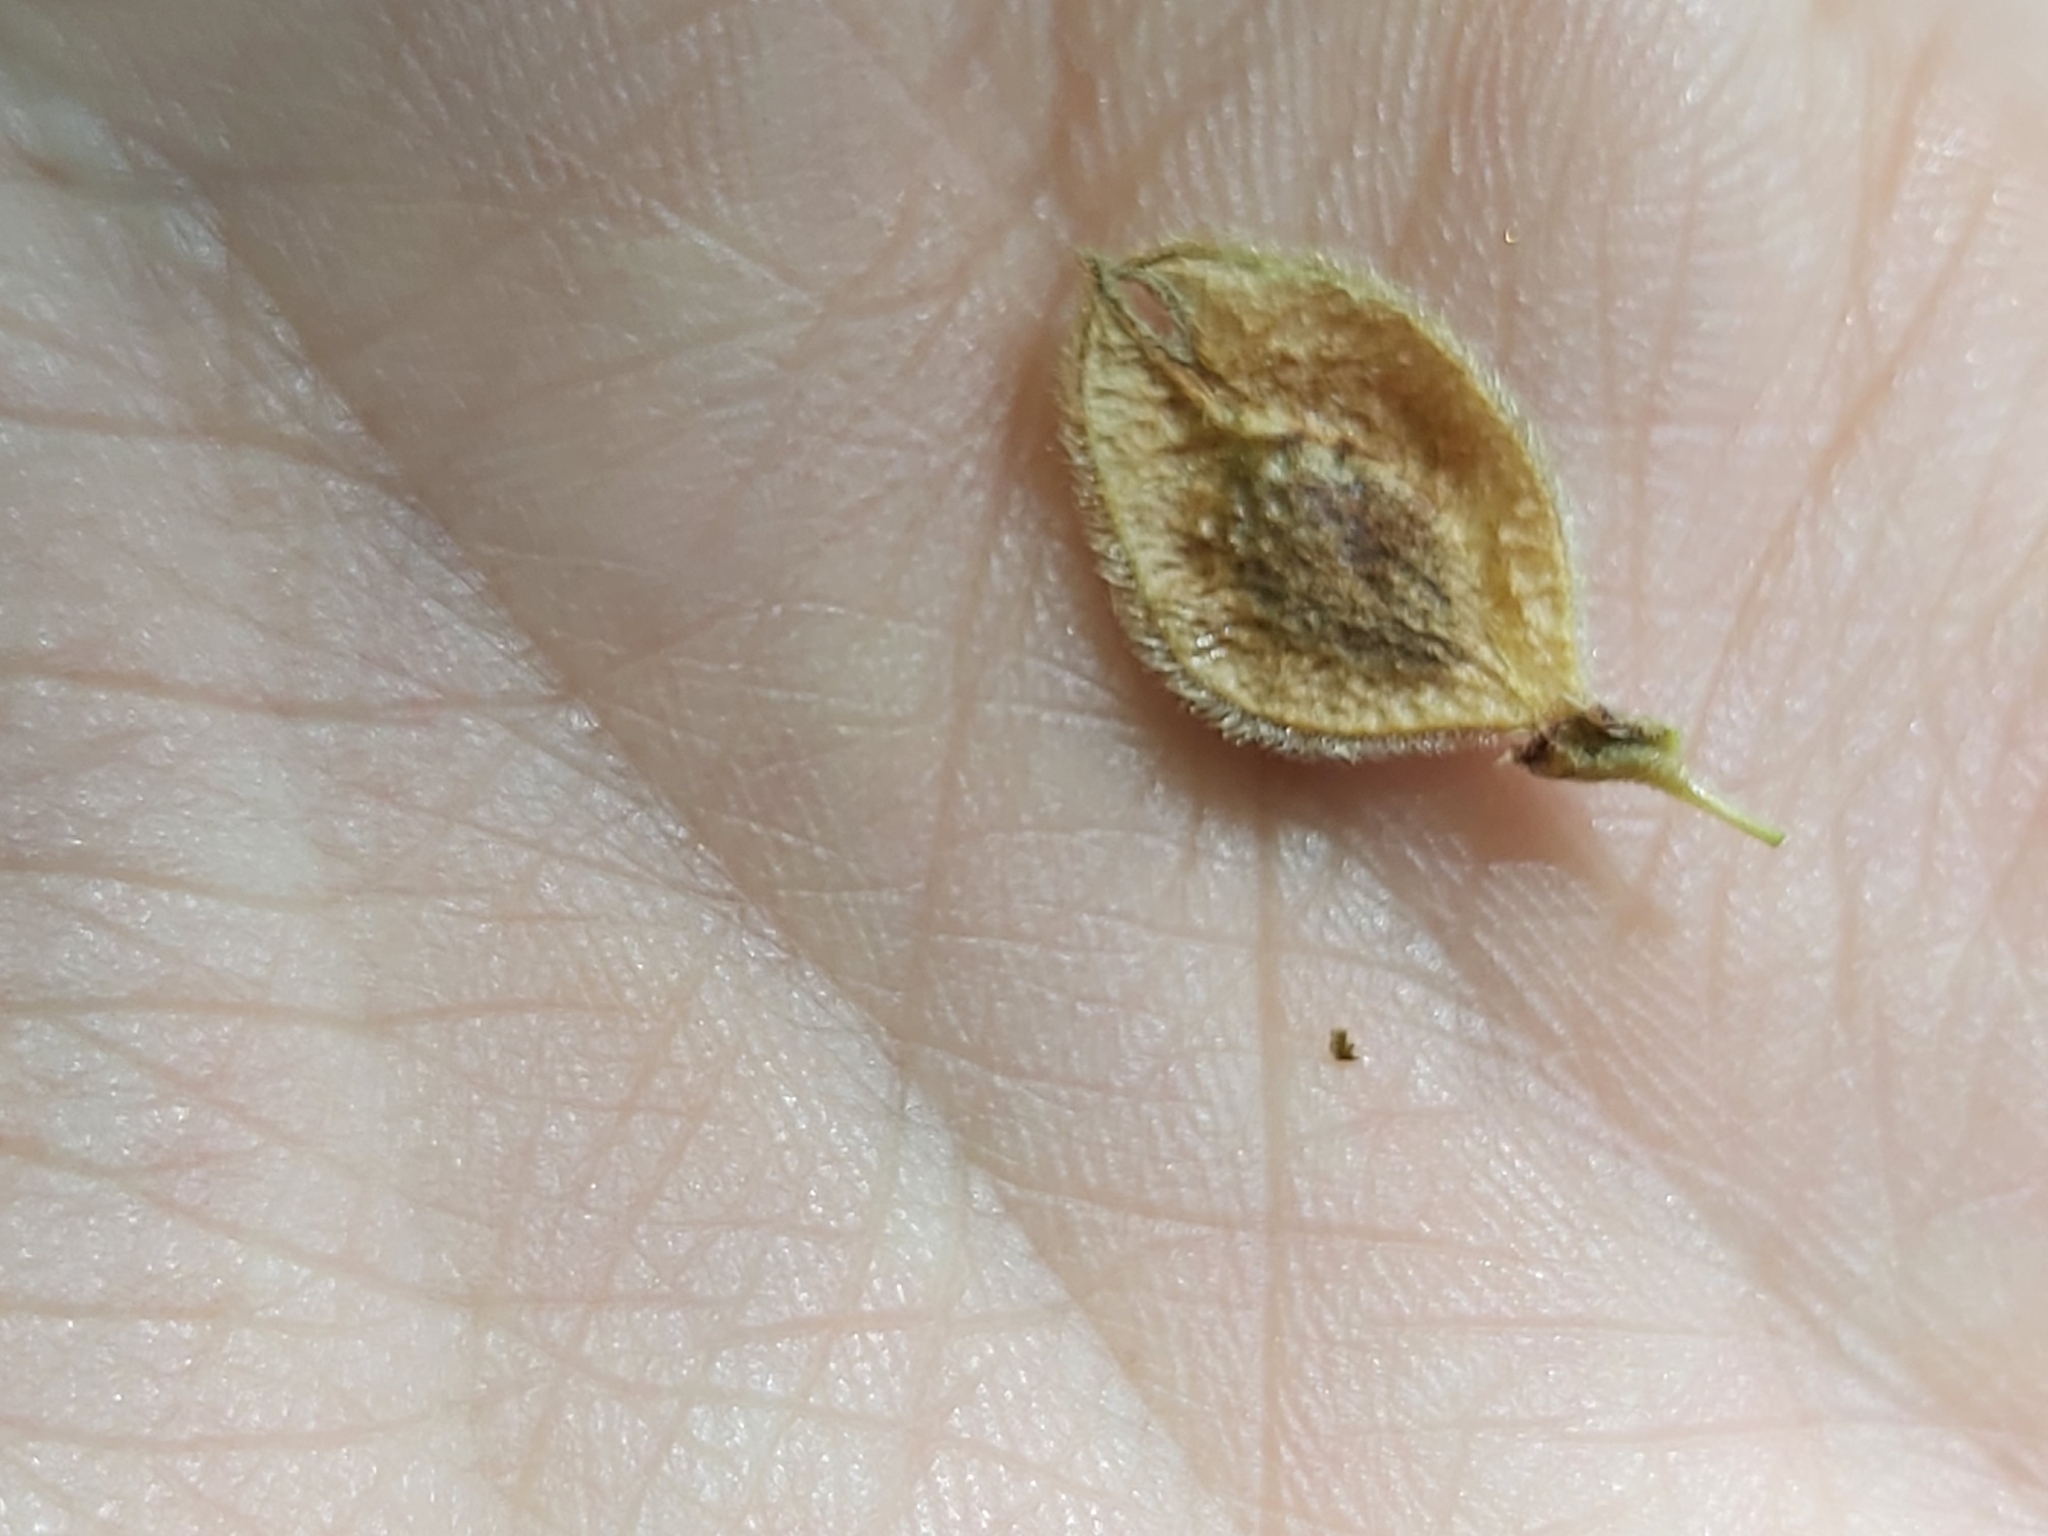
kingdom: Plantae
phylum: Tracheophyta
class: Magnoliopsida
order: Rosales
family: Ulmaceae
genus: Ulmus
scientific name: Ulmus laevis
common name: European white-elm
